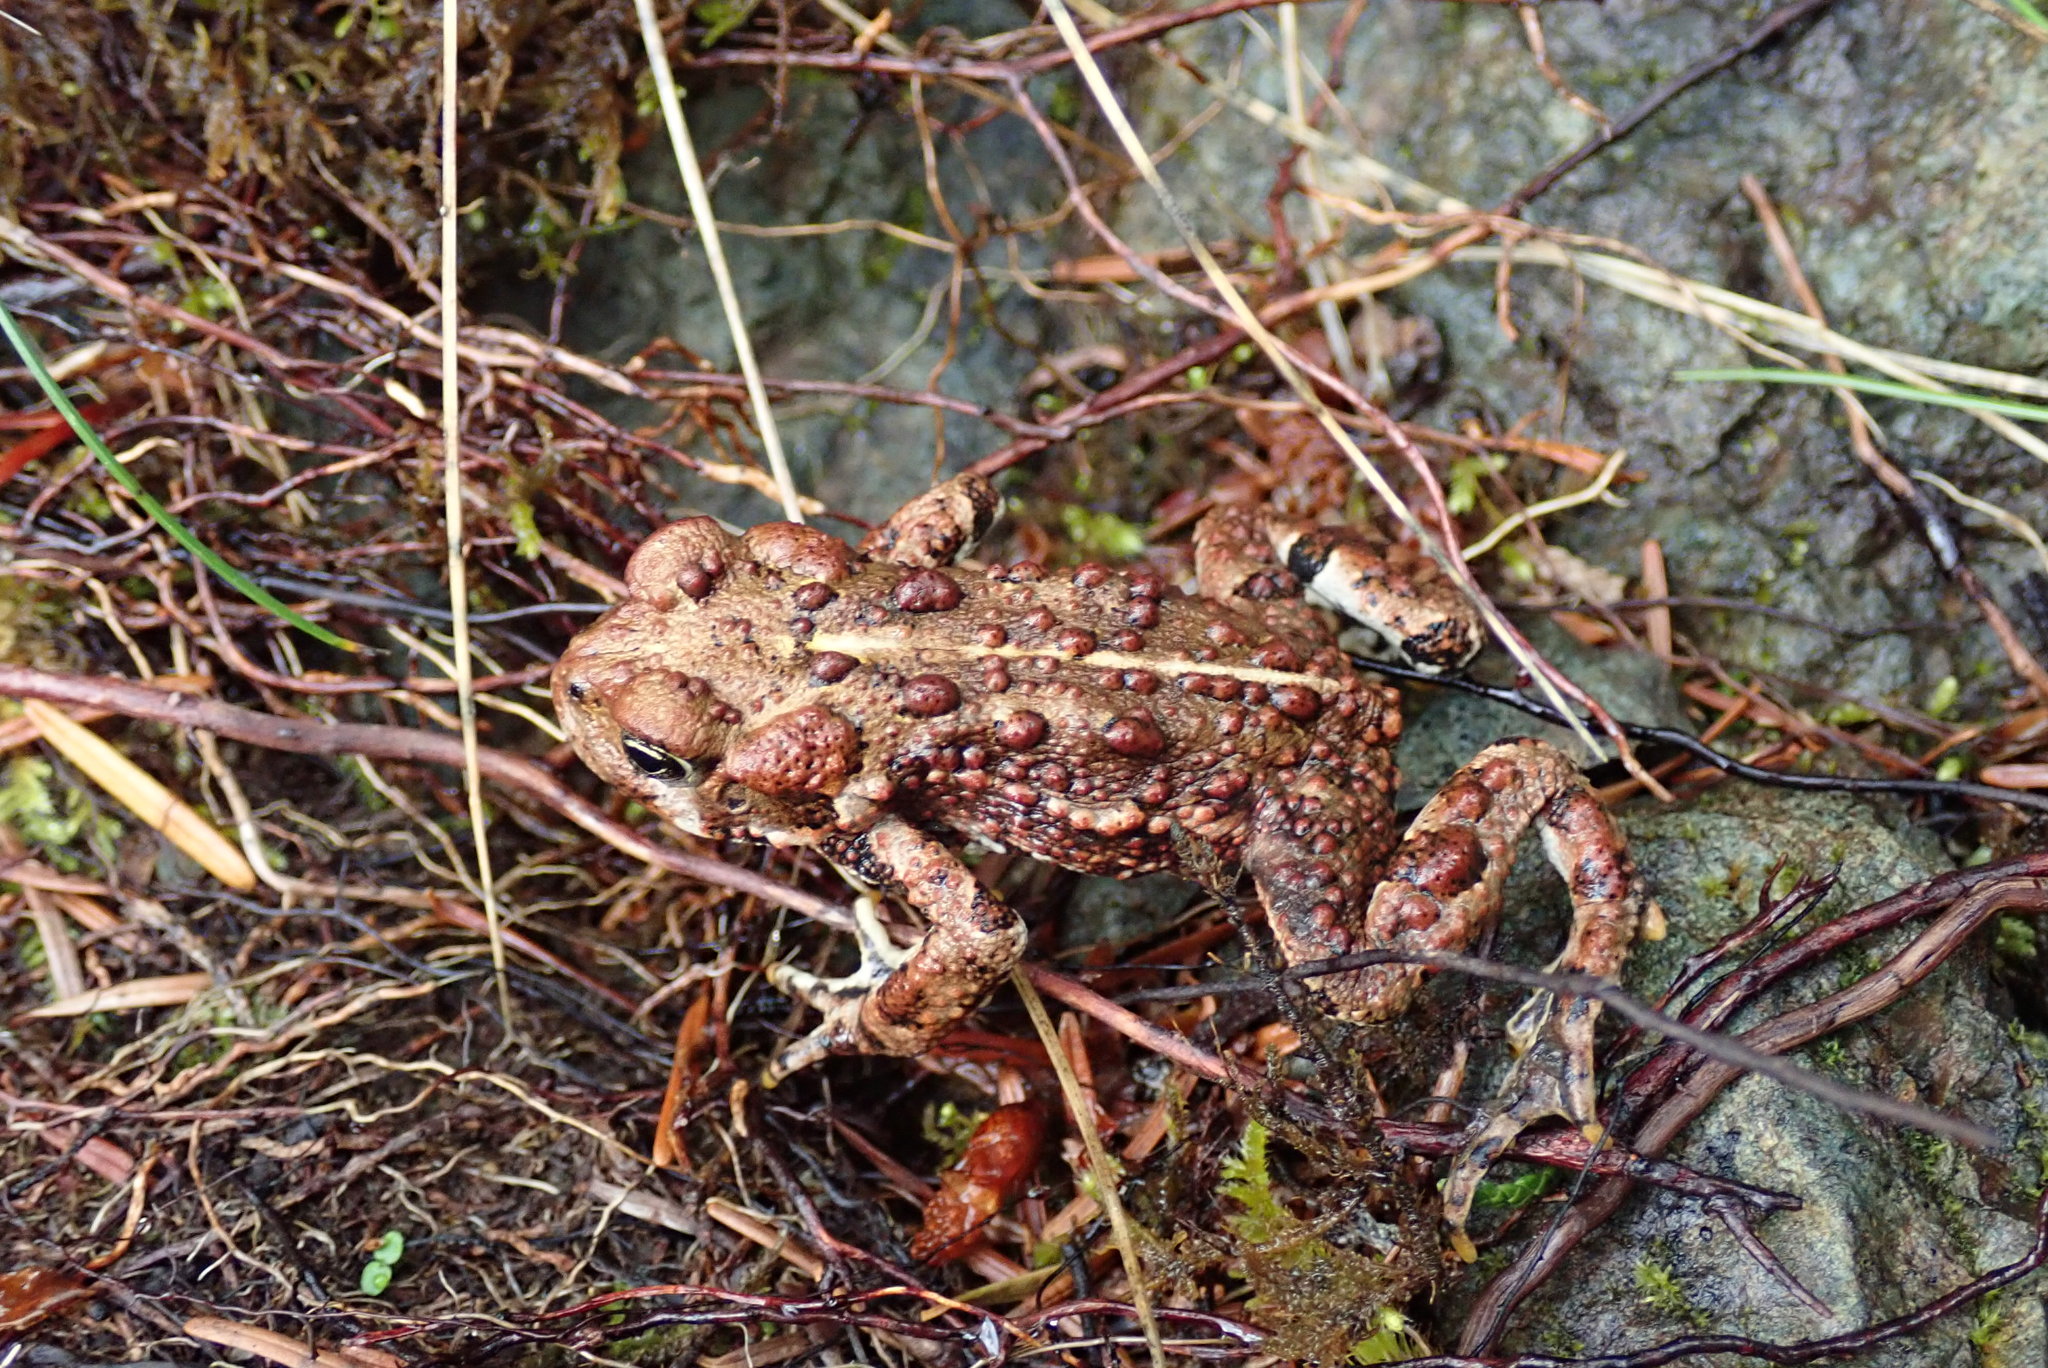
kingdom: Animalia
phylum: Chordata
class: Amphibia
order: Anura
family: Bufonidae
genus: Anaxyrus
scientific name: Anaxyrus boreas
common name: Western toad
